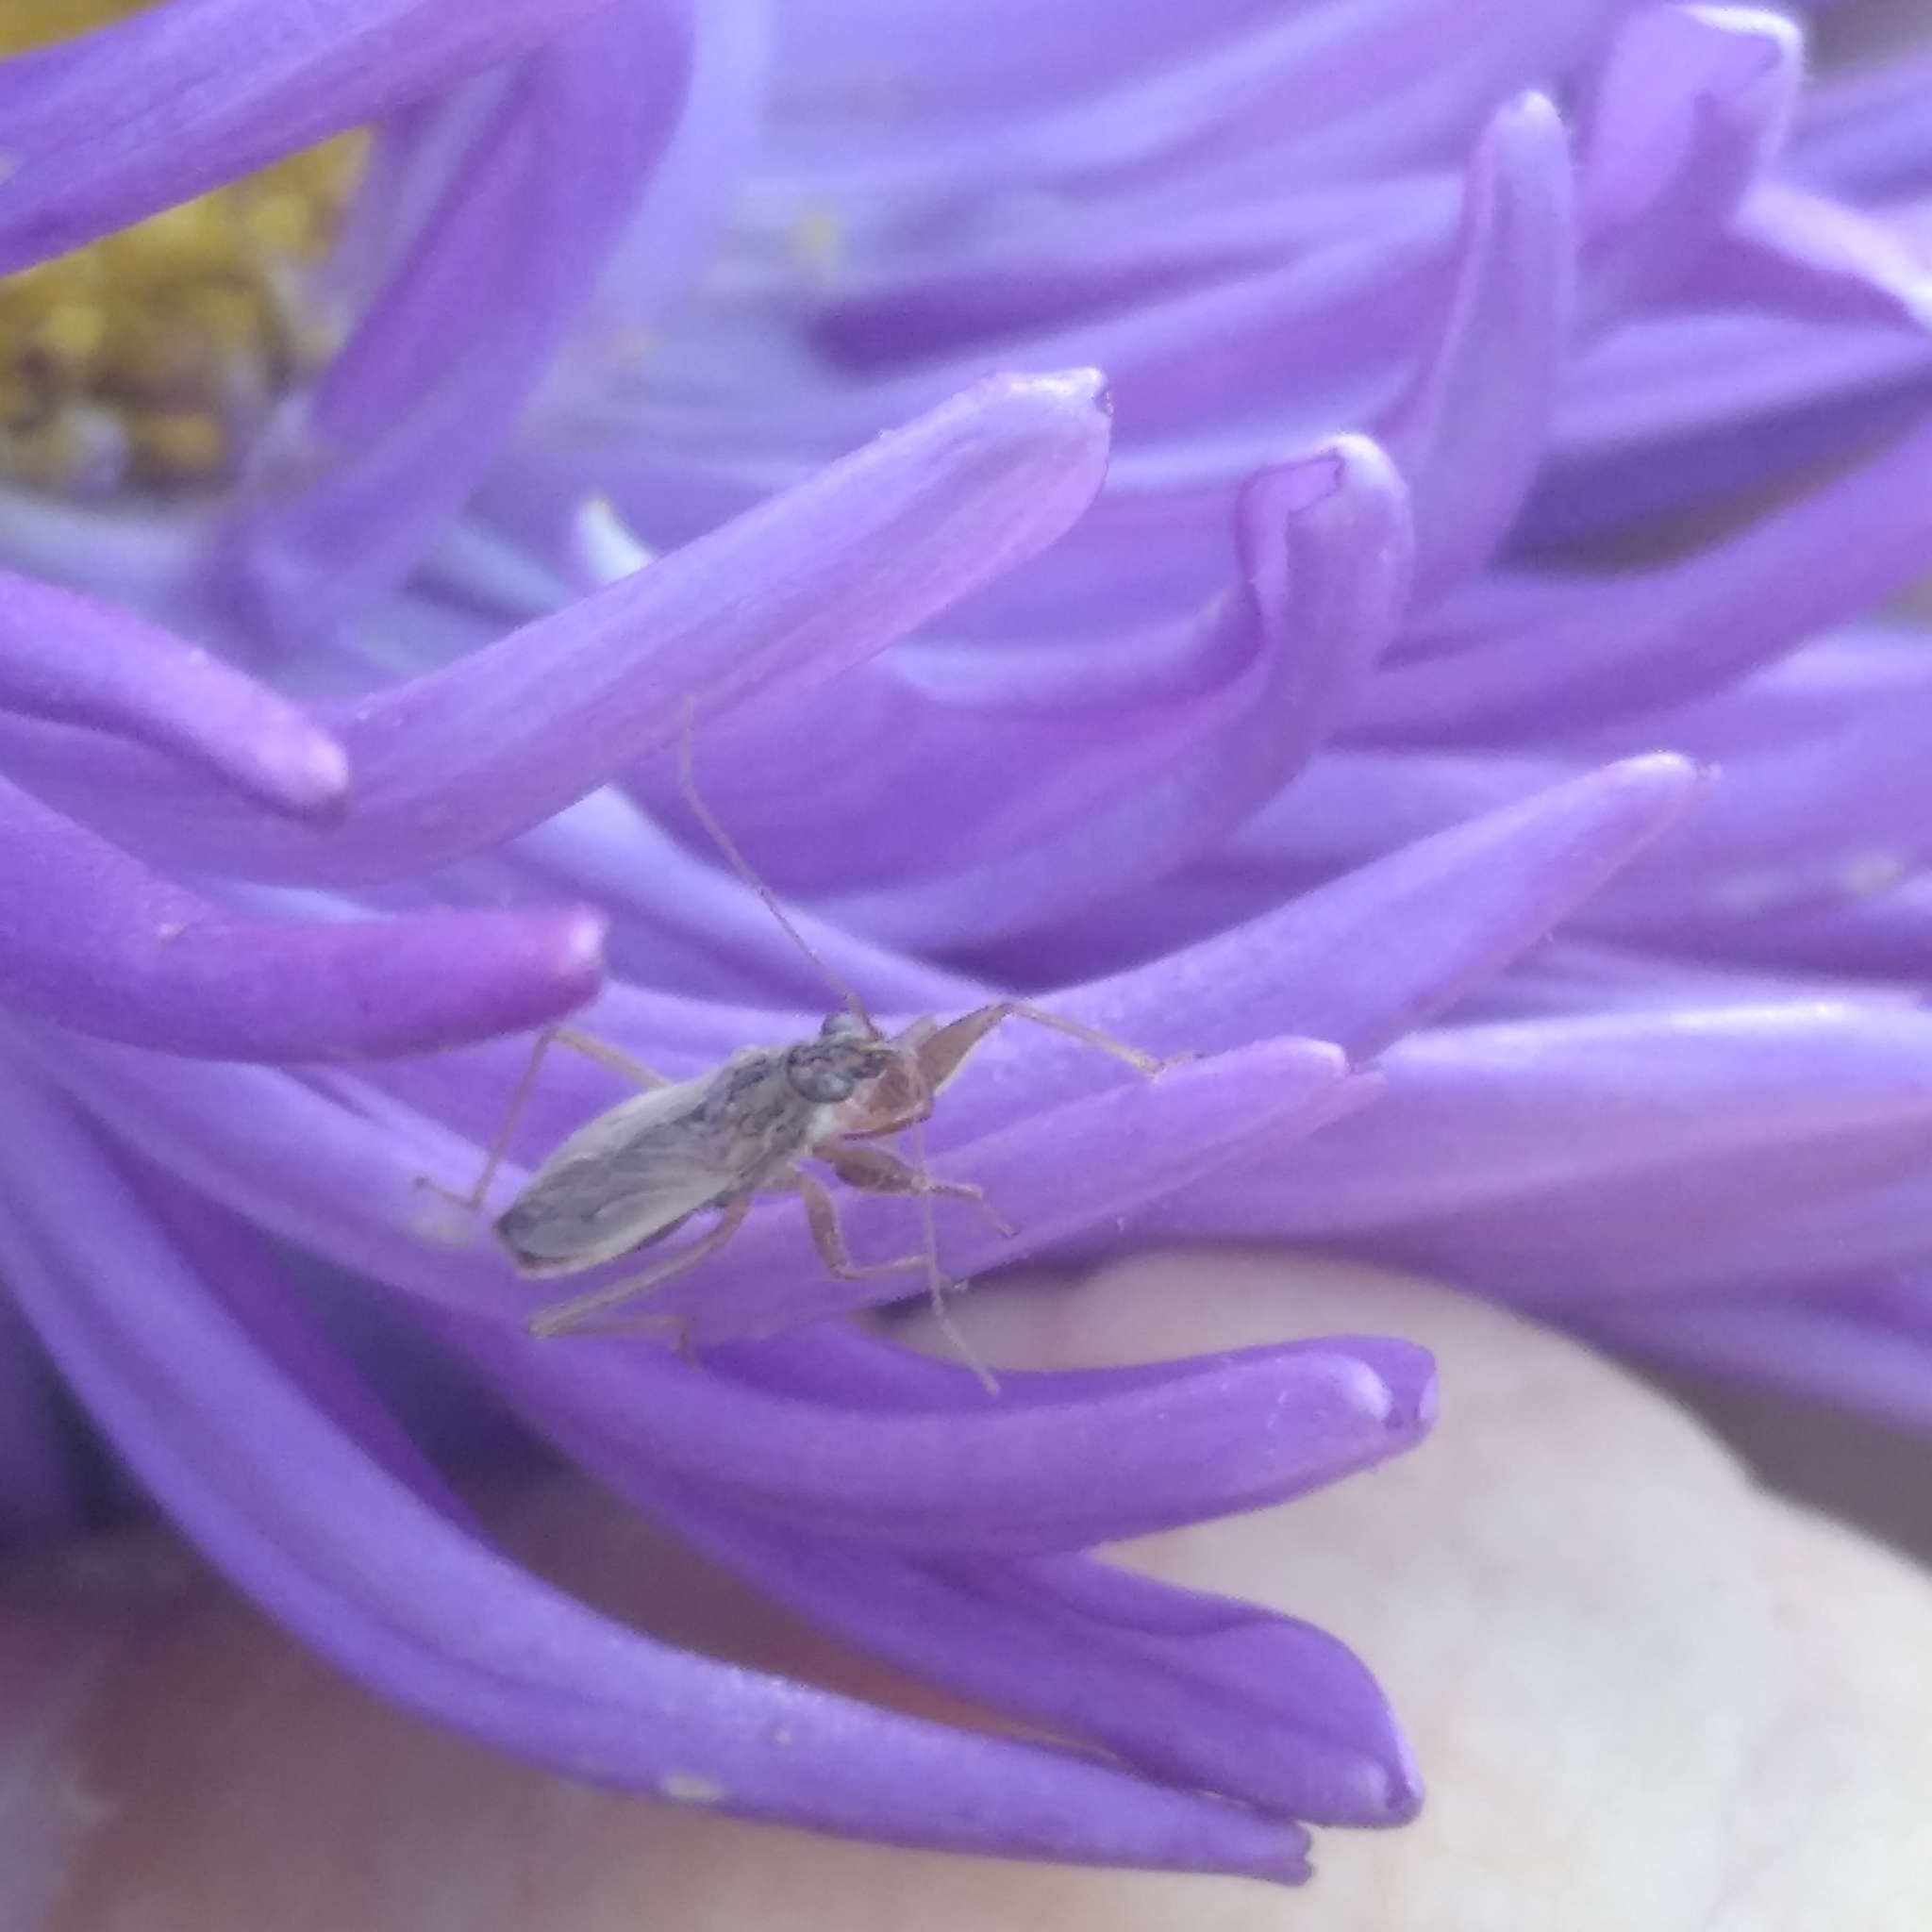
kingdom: Animalia
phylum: Arthropoda
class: Insecta
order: Hemiptera
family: Nabidae
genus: Nabis
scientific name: Nabis
